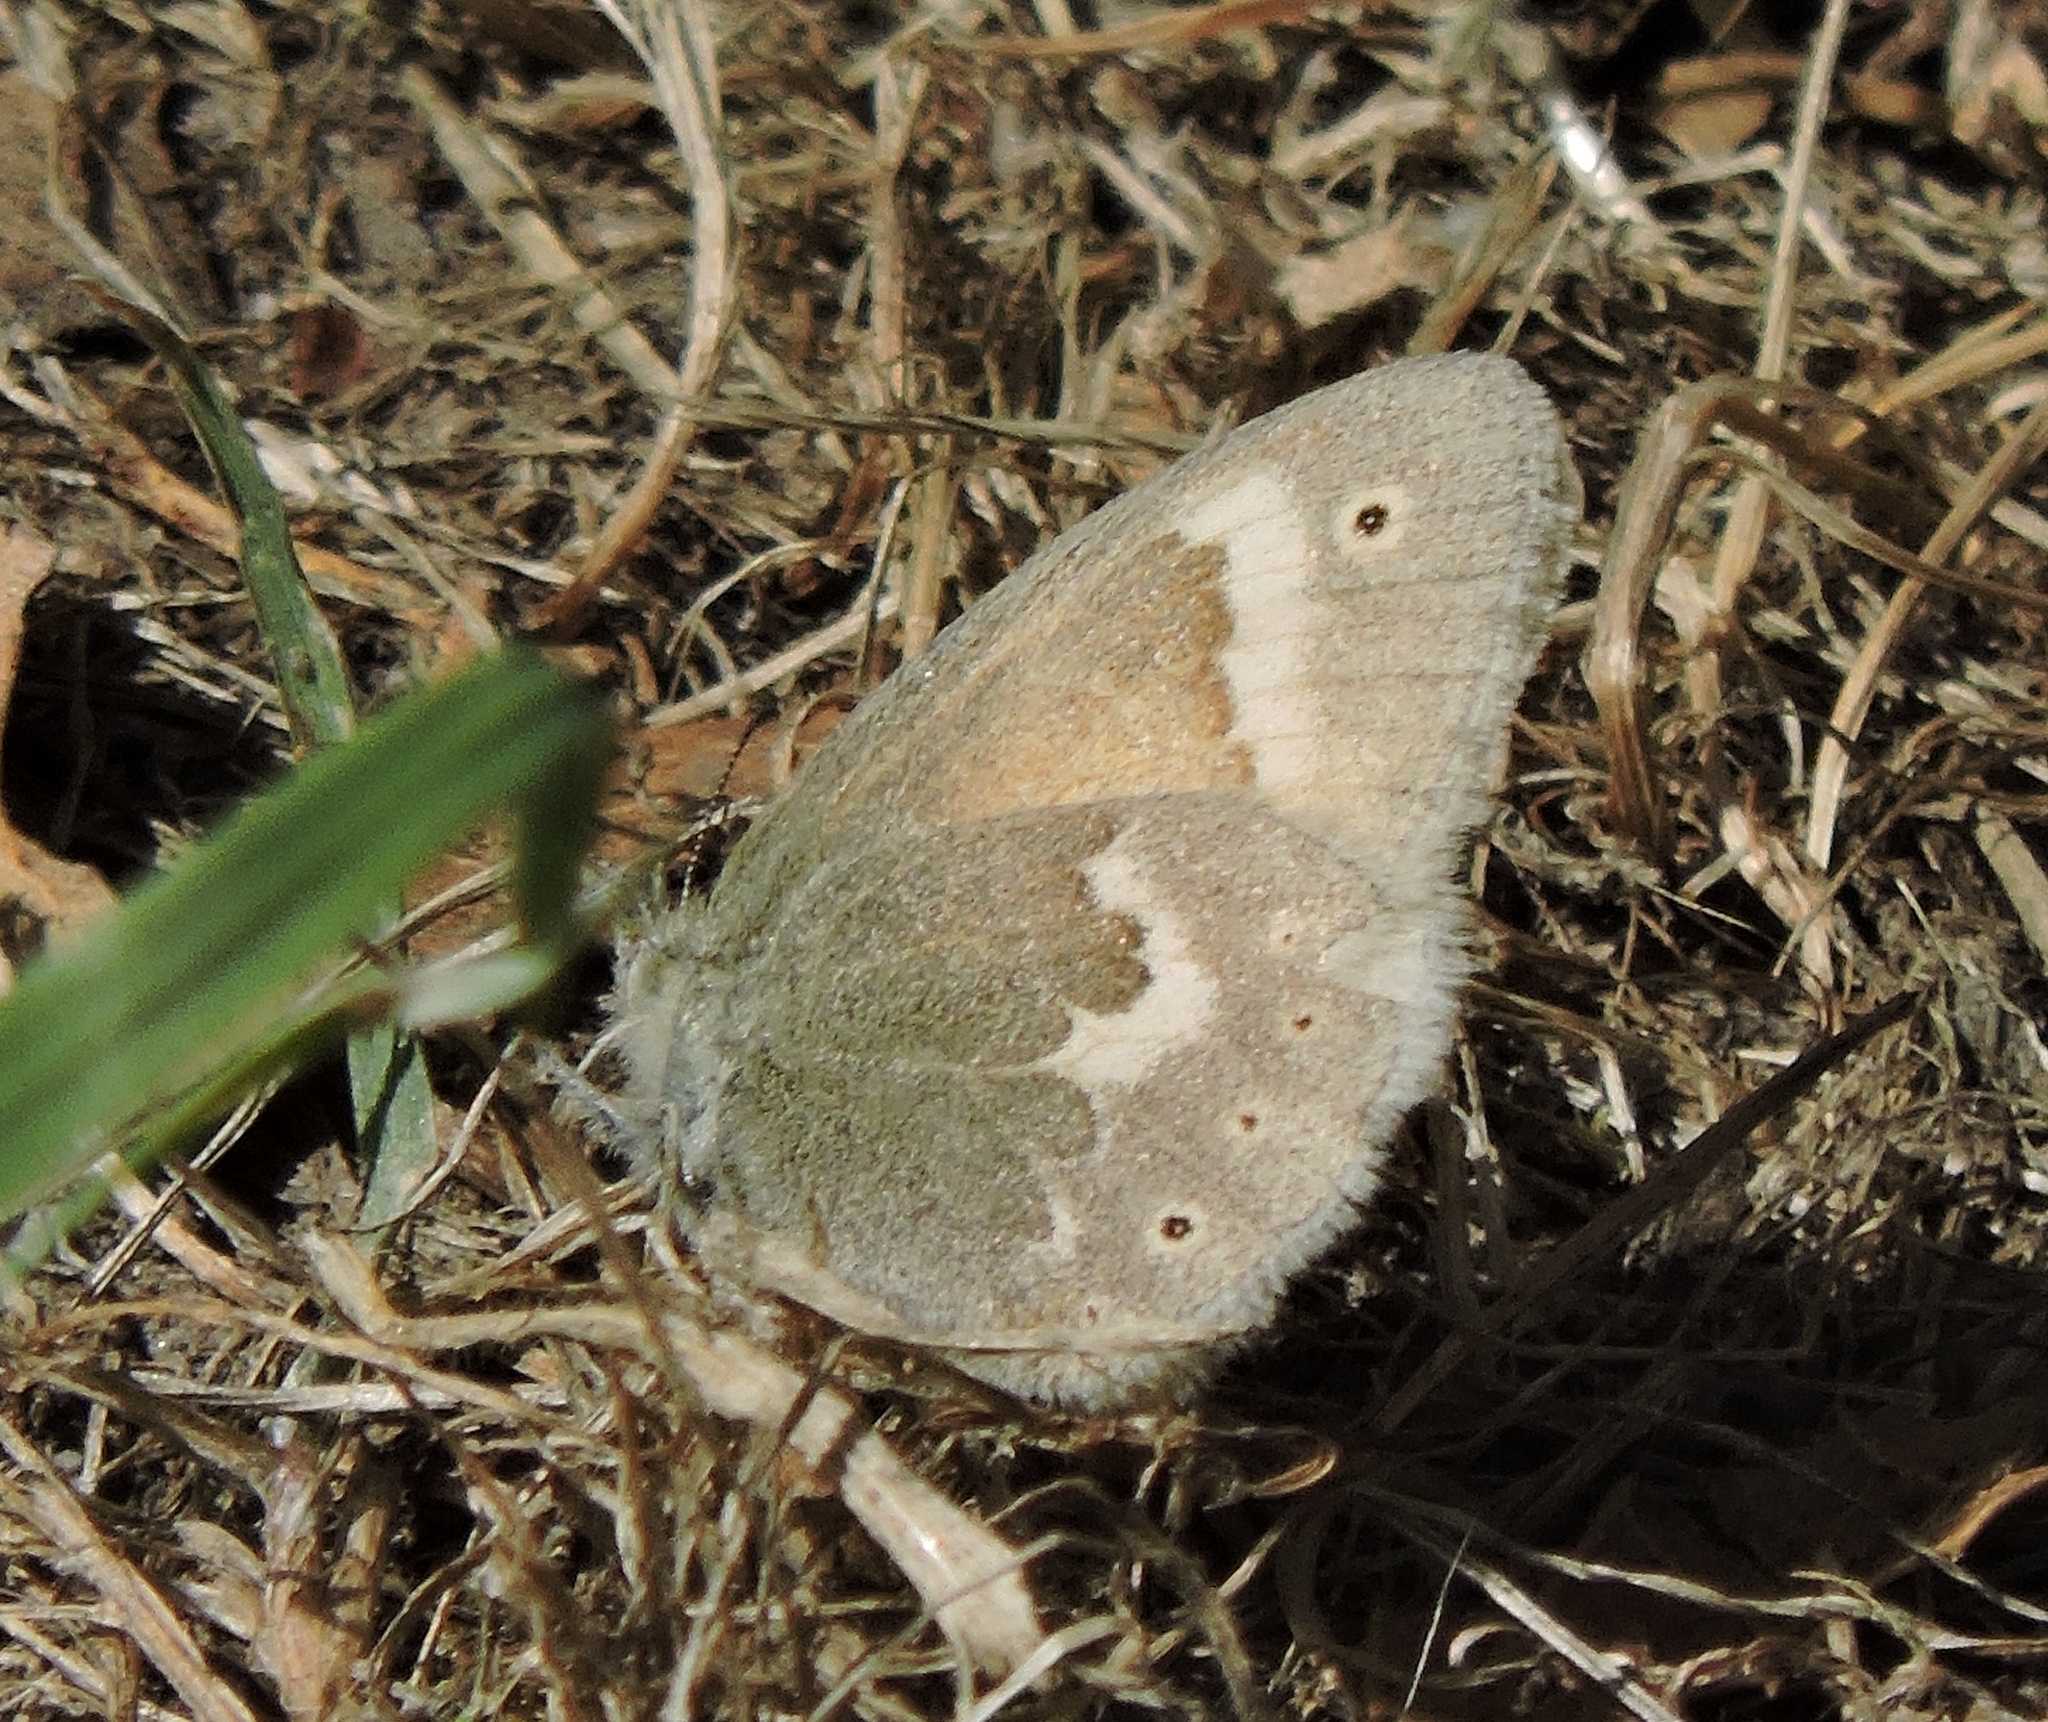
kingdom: Animalia
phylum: Arthropoda
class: Insecta
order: Lepidoptera
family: Nymphalidae
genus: Coenonympha
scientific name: Coenonympha california
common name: Common ringlet
